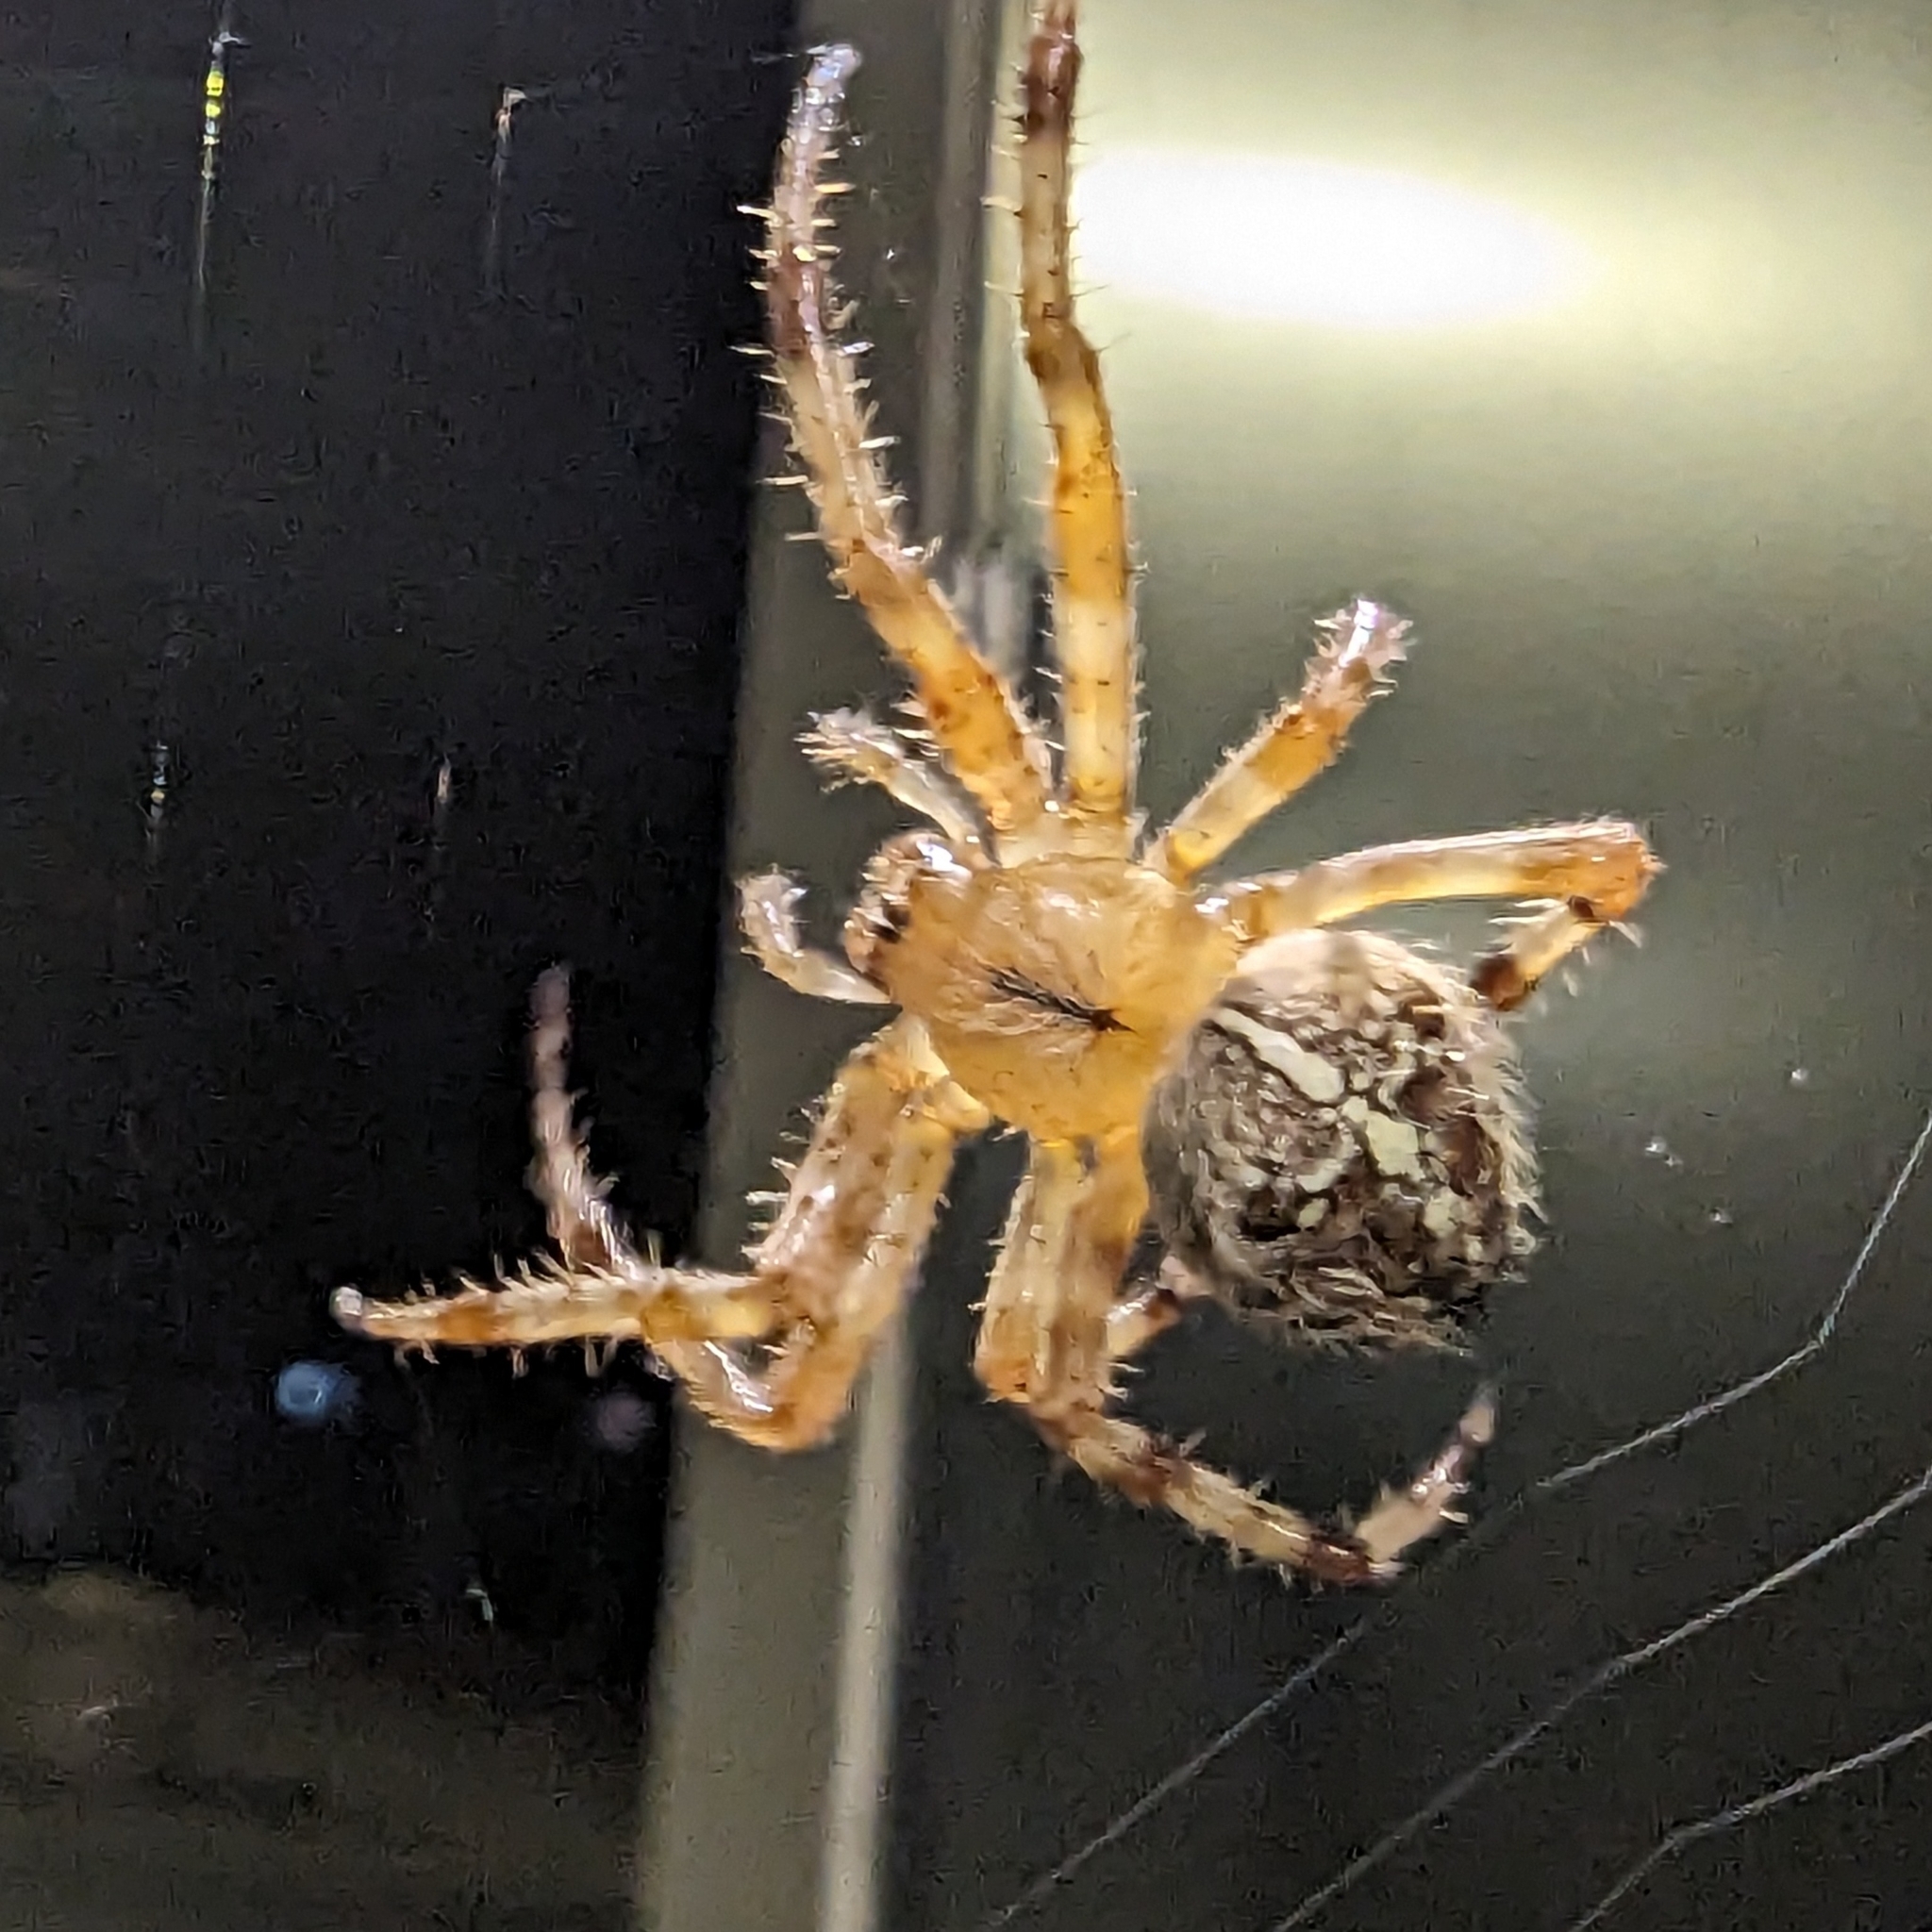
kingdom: Animalia
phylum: Arthropoda
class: Arachnida
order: Araneae
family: Araneidae
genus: Araneus
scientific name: Araneus diadematus
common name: Cross orbweaver
